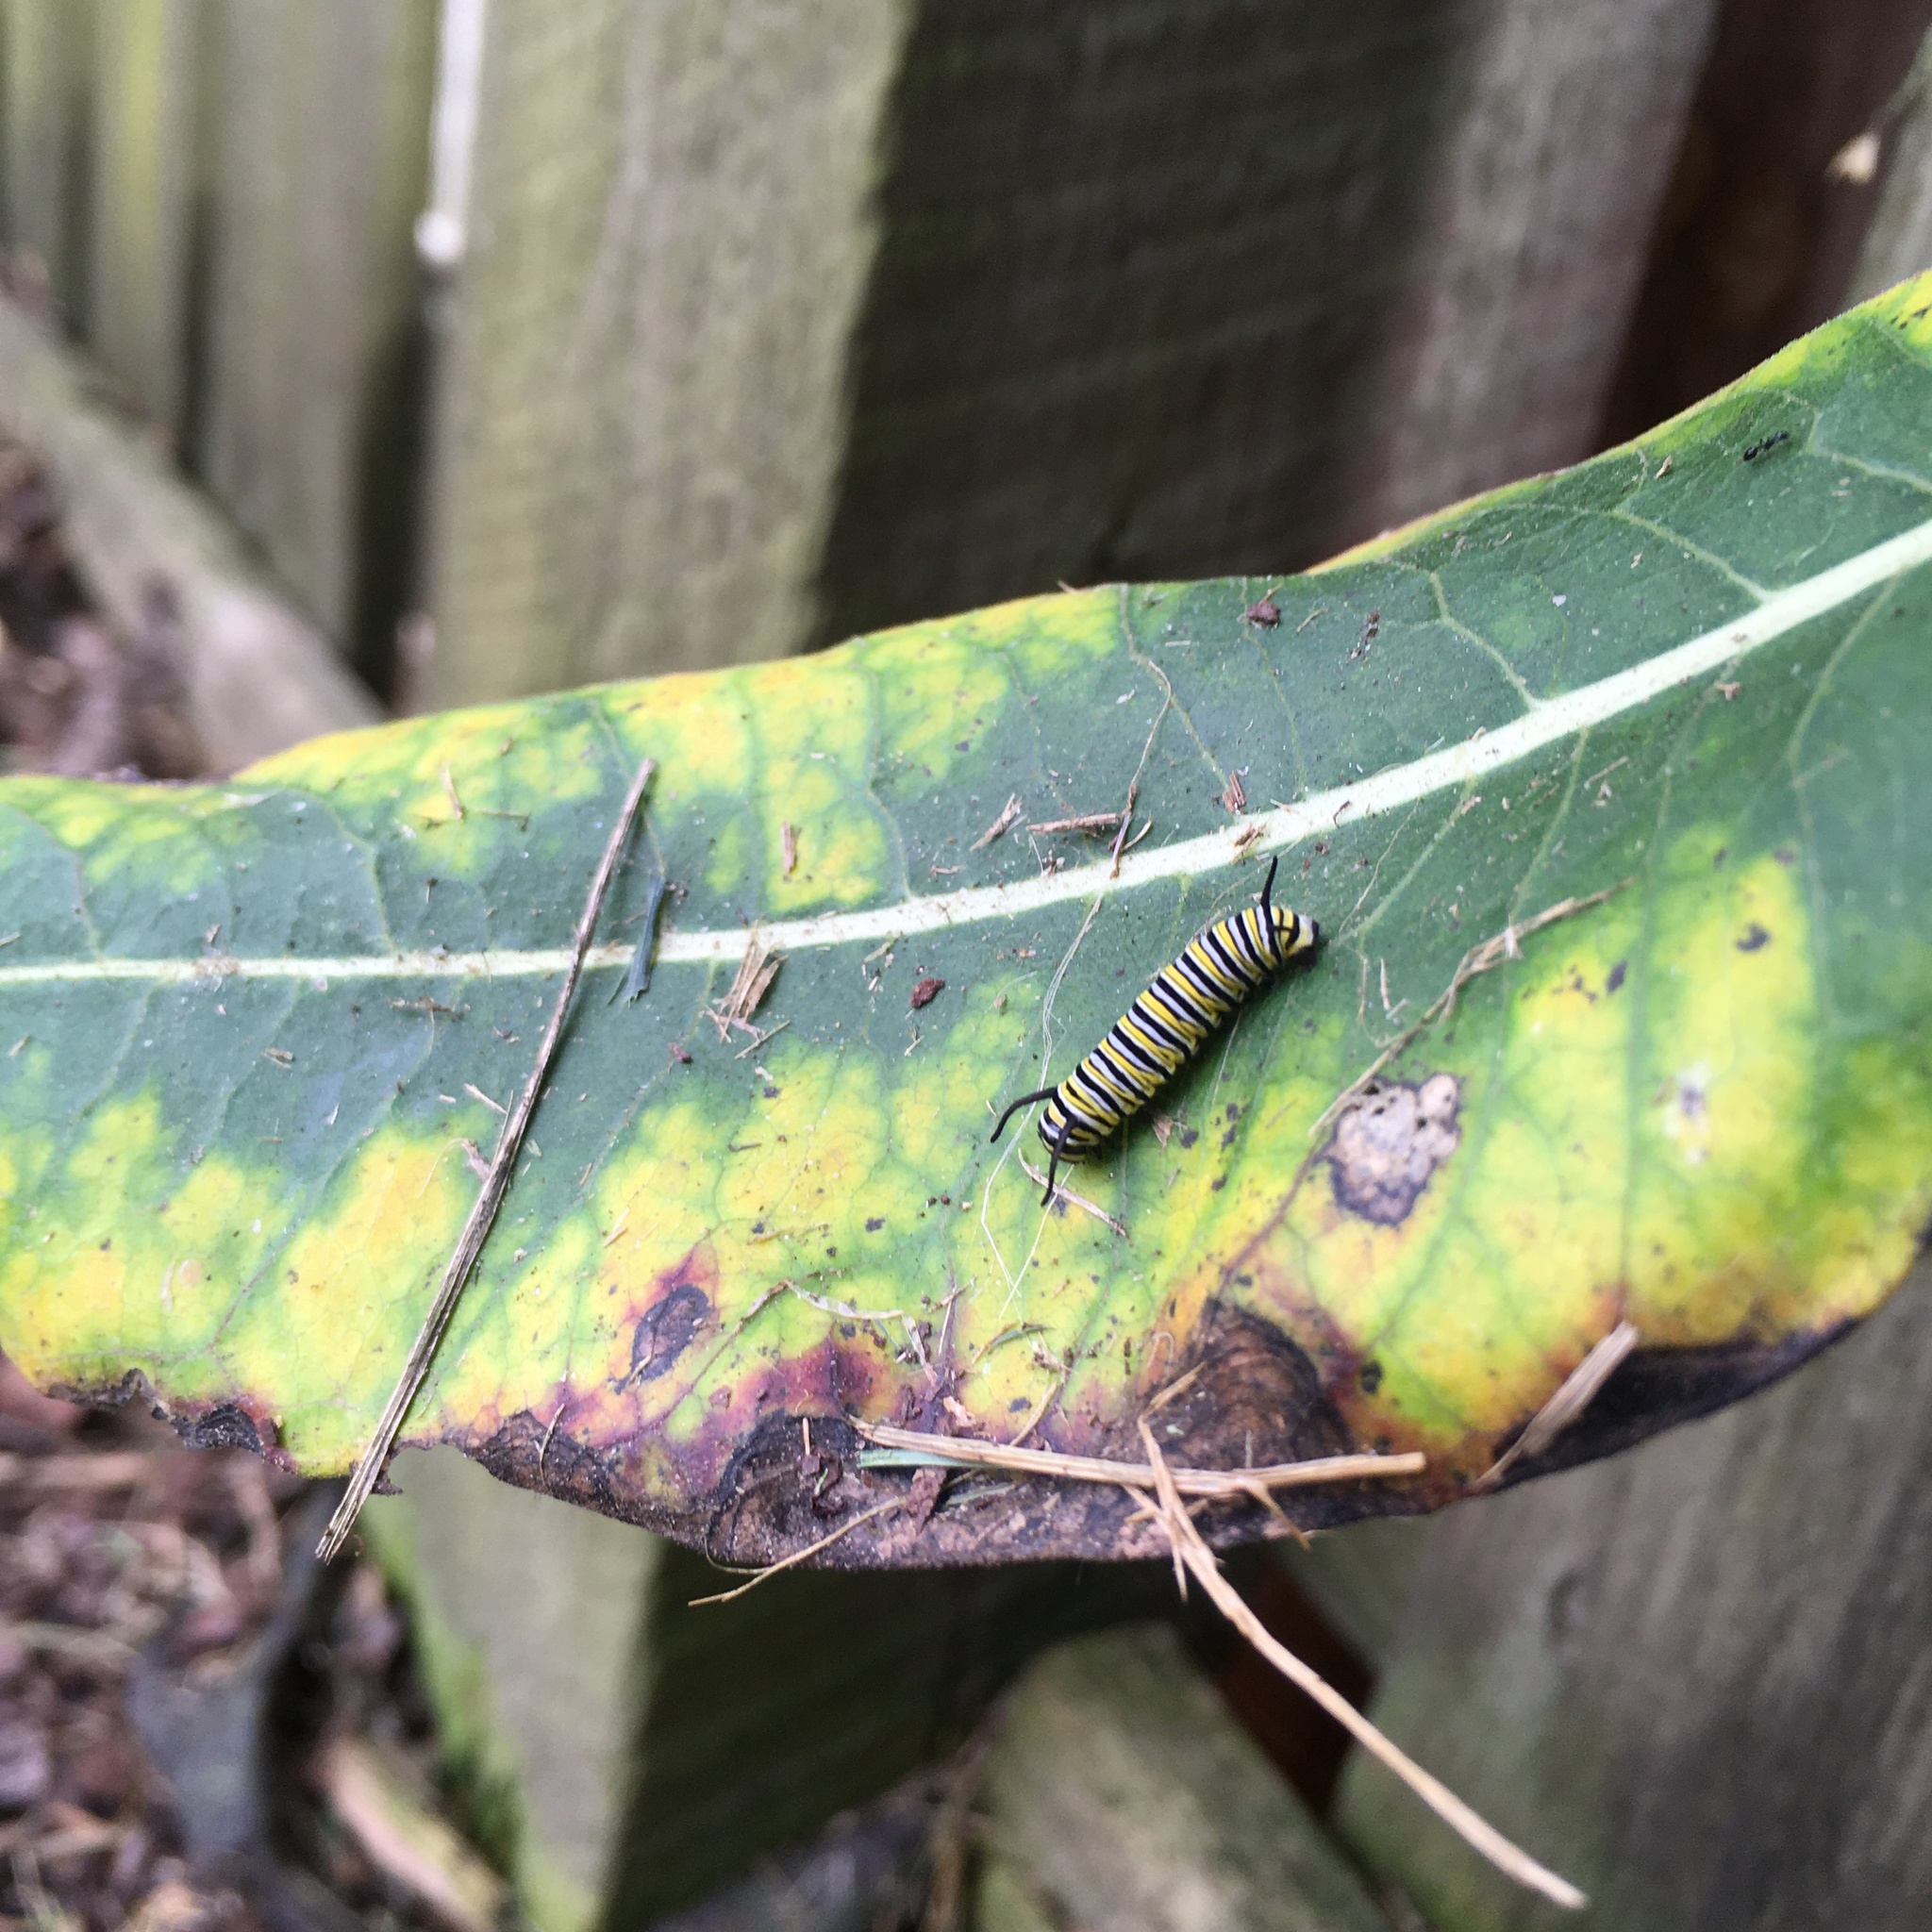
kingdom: Animalia
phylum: Arthropoda
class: Insecta
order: Lepidoptera
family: Nymphalidae
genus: Danaus
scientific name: Danaus plexippus
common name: Monarch
